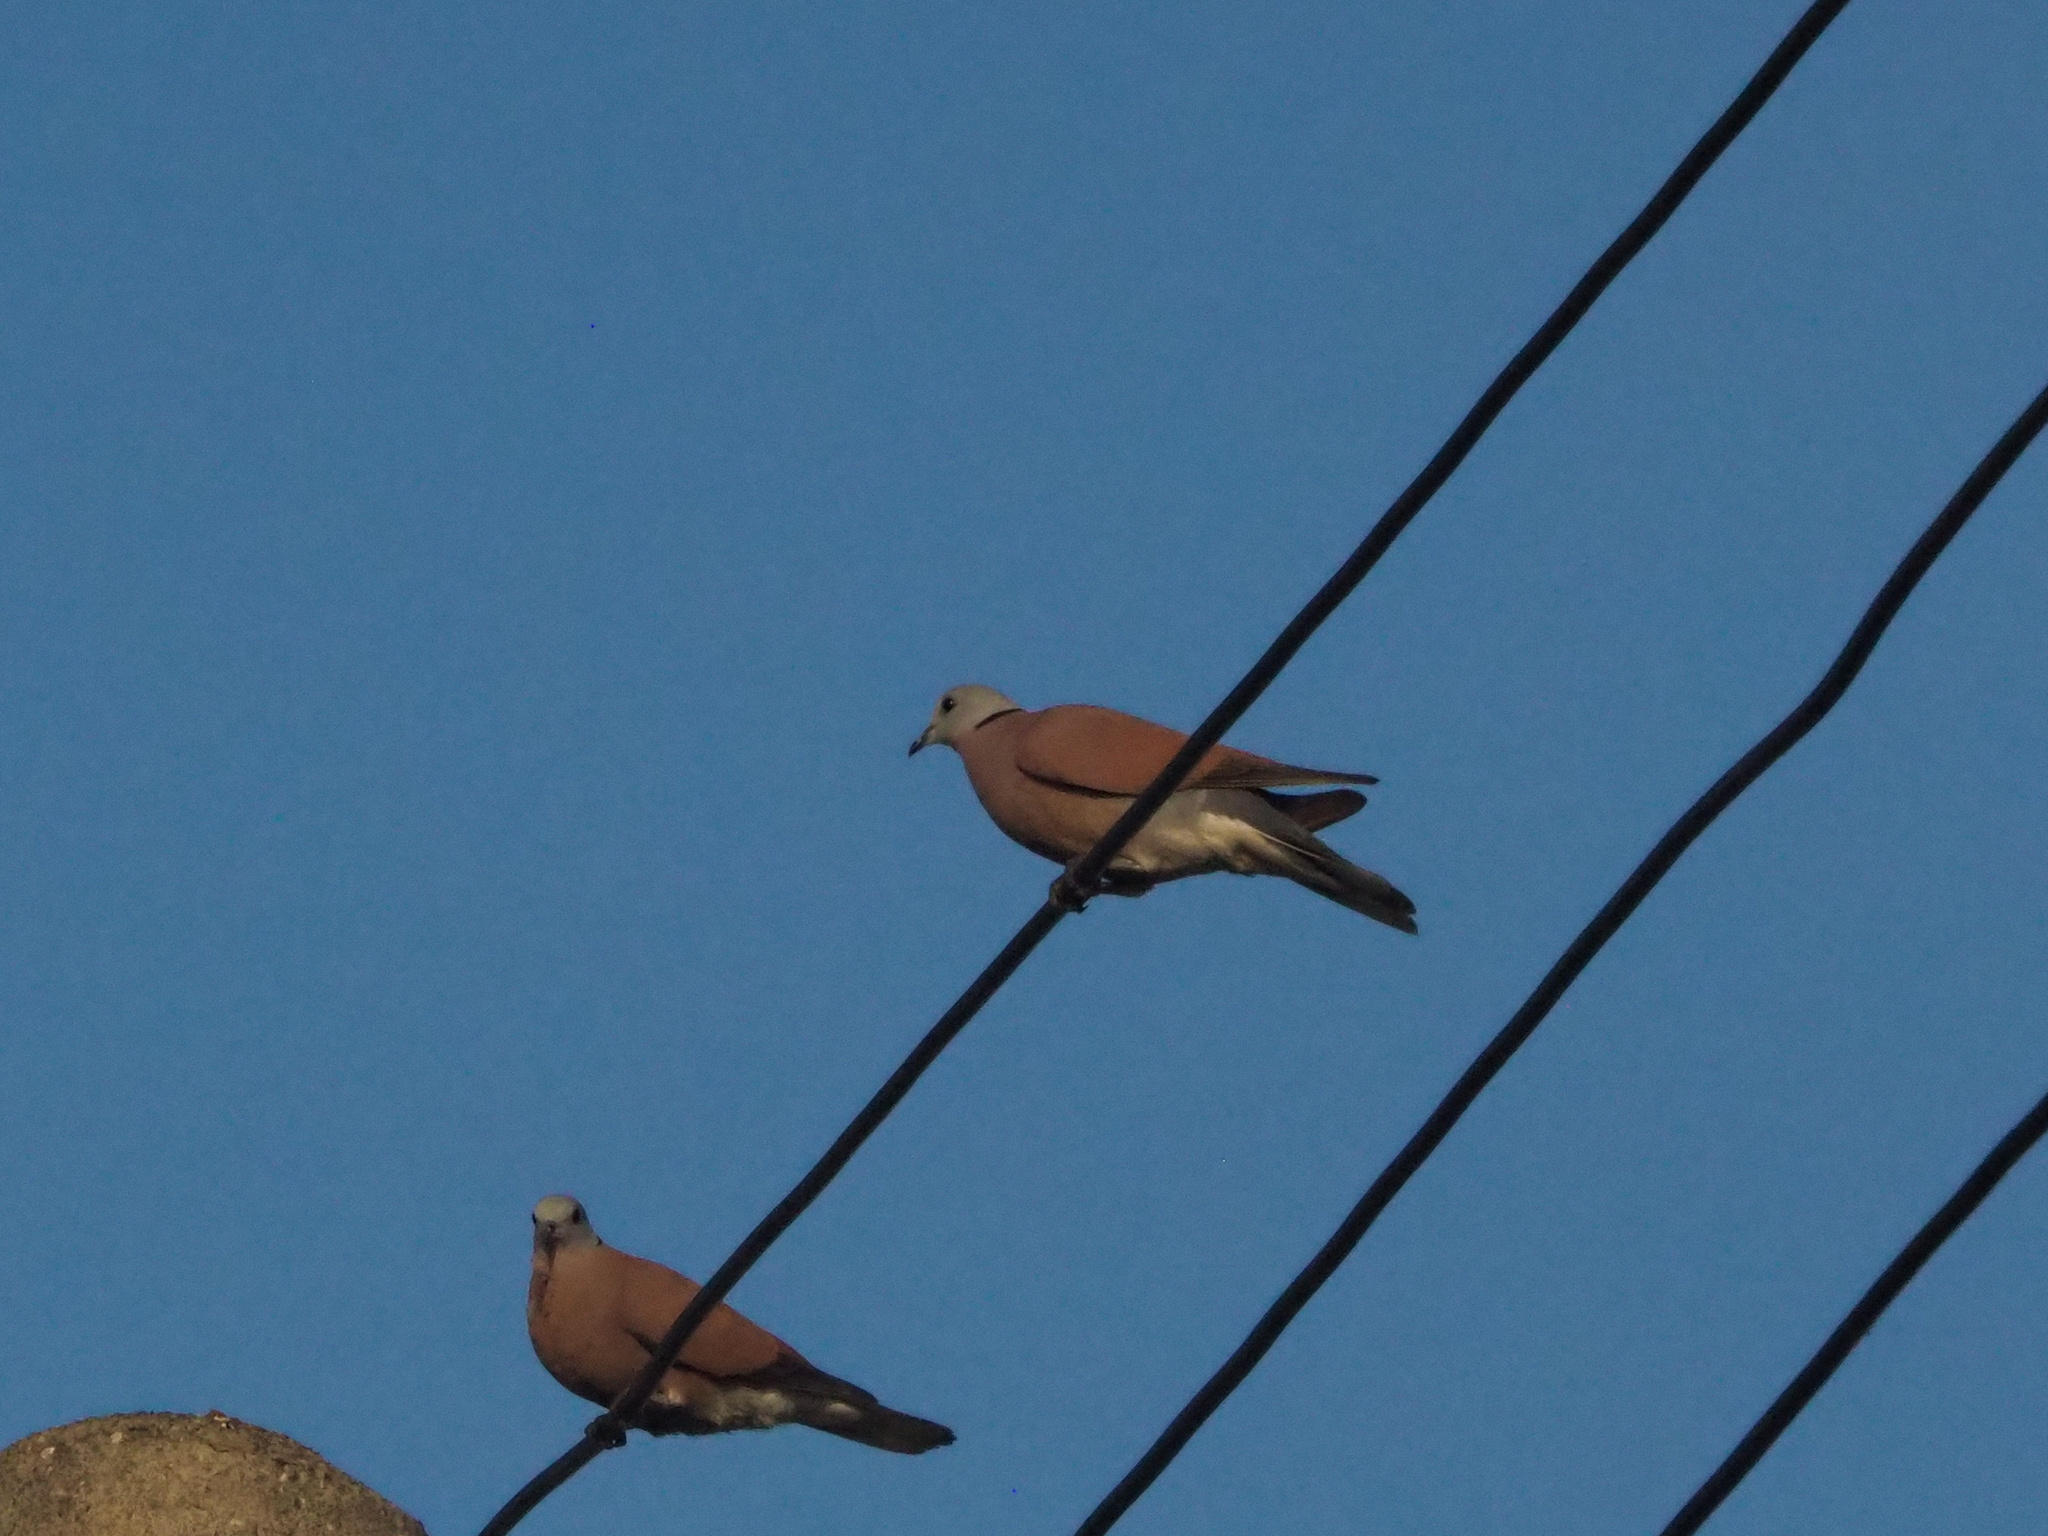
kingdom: Animalia
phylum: Chordata
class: Aves
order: Columbiformes
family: Columbidae
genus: Streptopelia
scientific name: Streptopelia tranquebarica
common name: Red turtle dove
